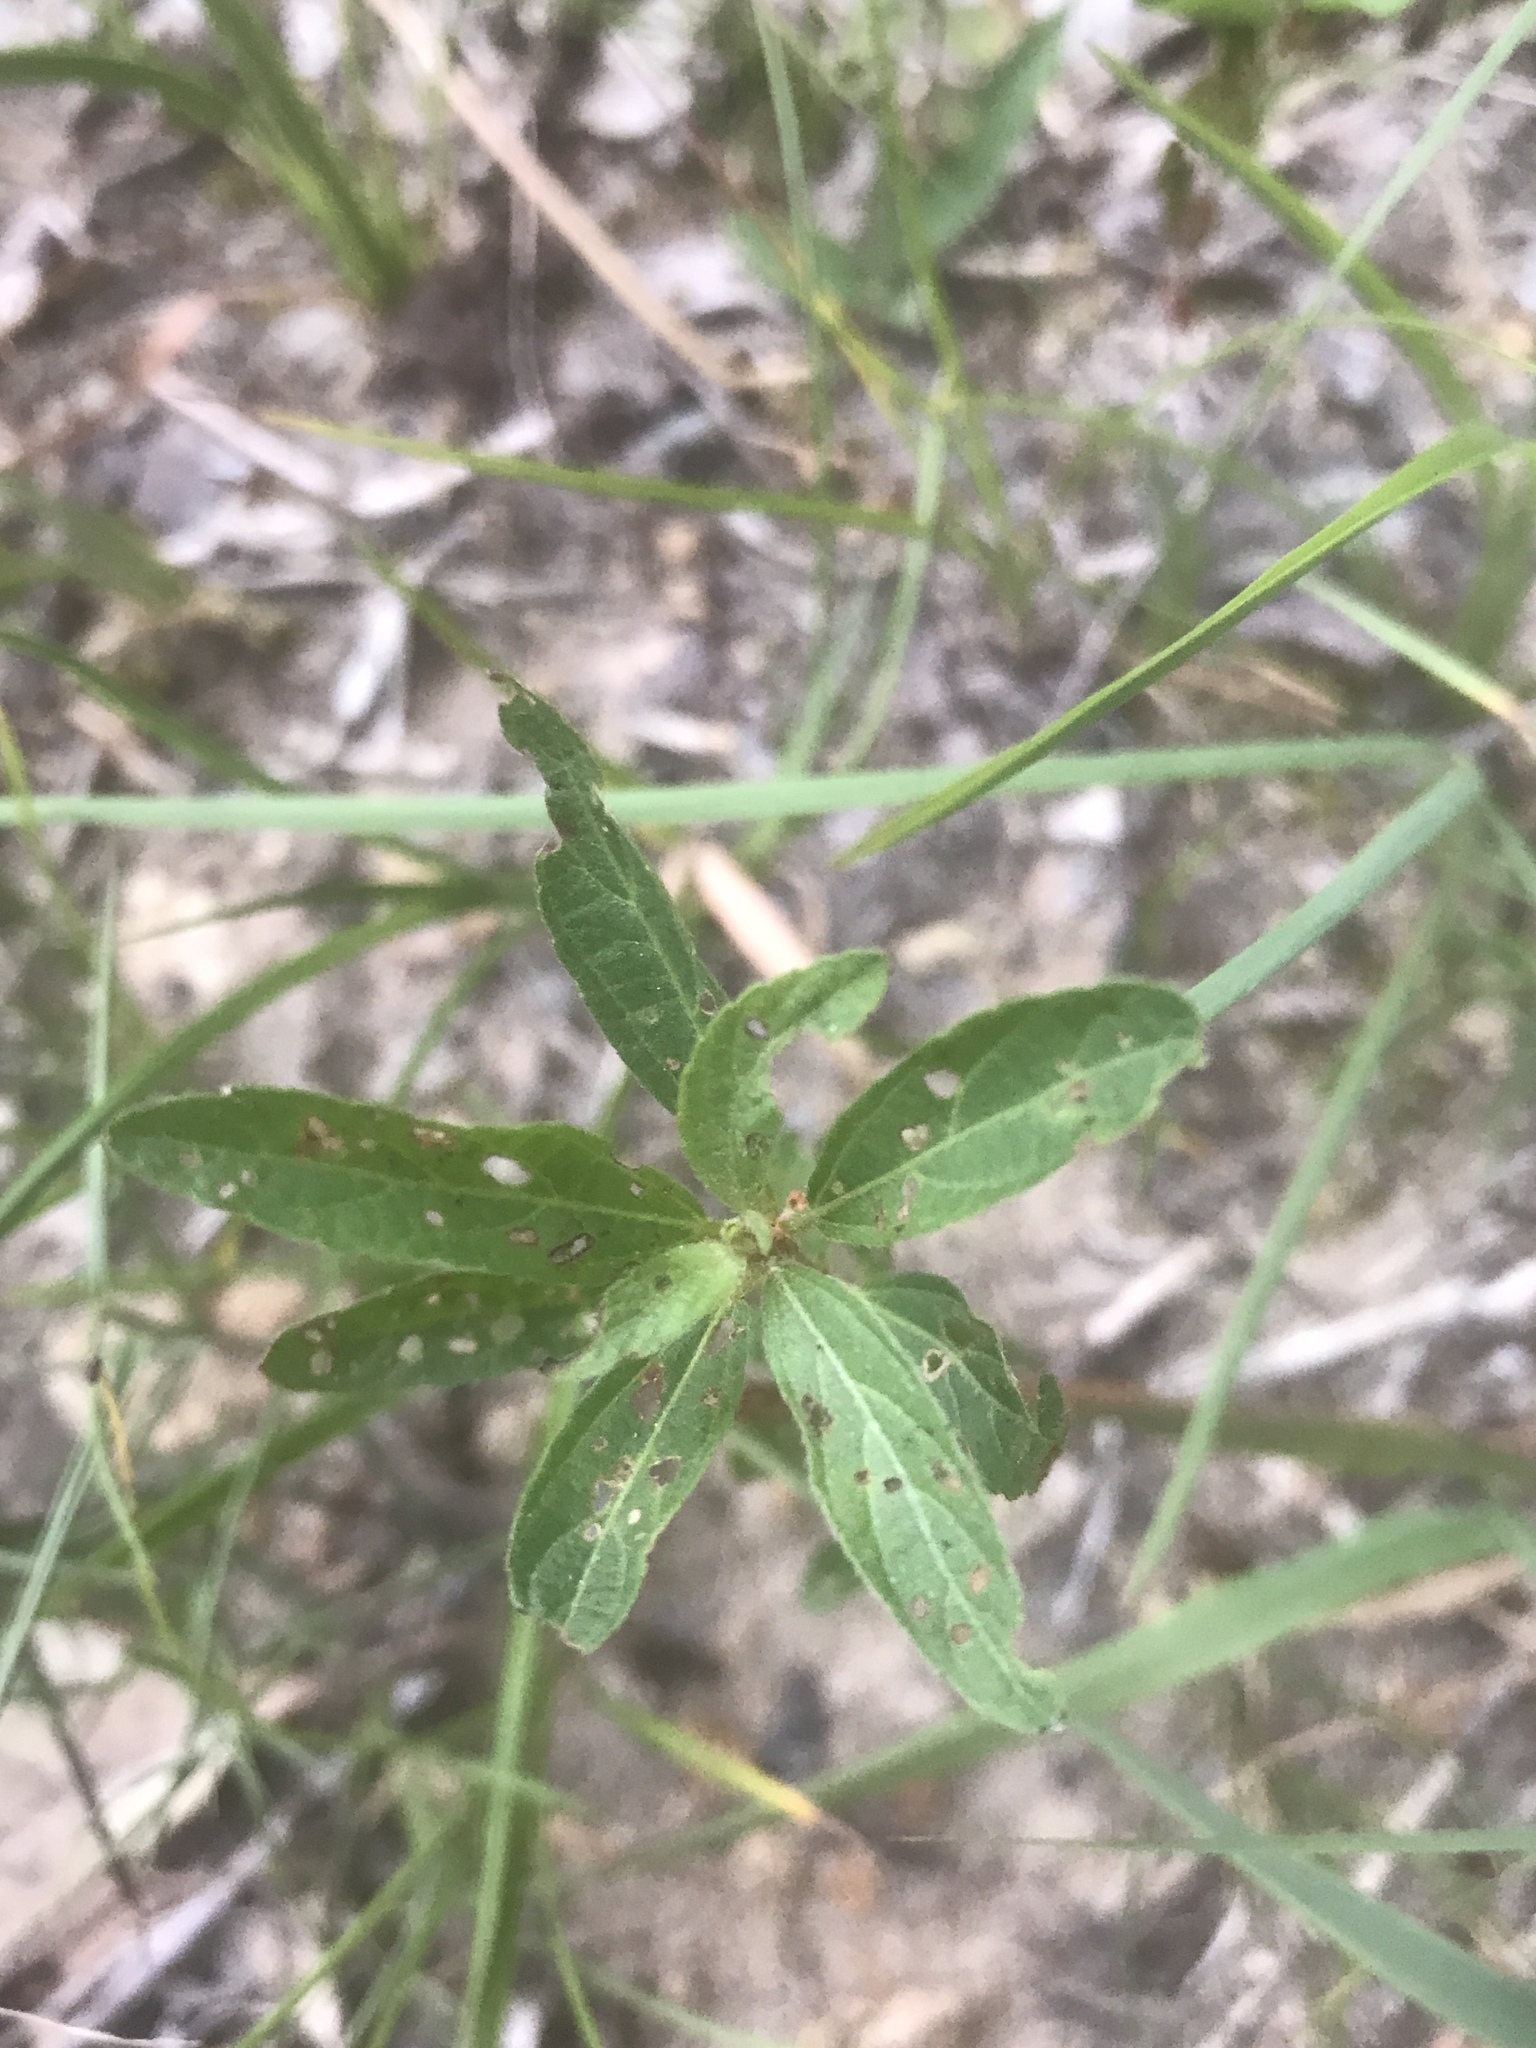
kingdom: Plantae
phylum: Tracheophyta
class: Magnoliopsida
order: Malpighiales
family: Euphorbiaceae
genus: Acalypha
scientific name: Acalypha gracilens
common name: Slender three-seeded mercury
